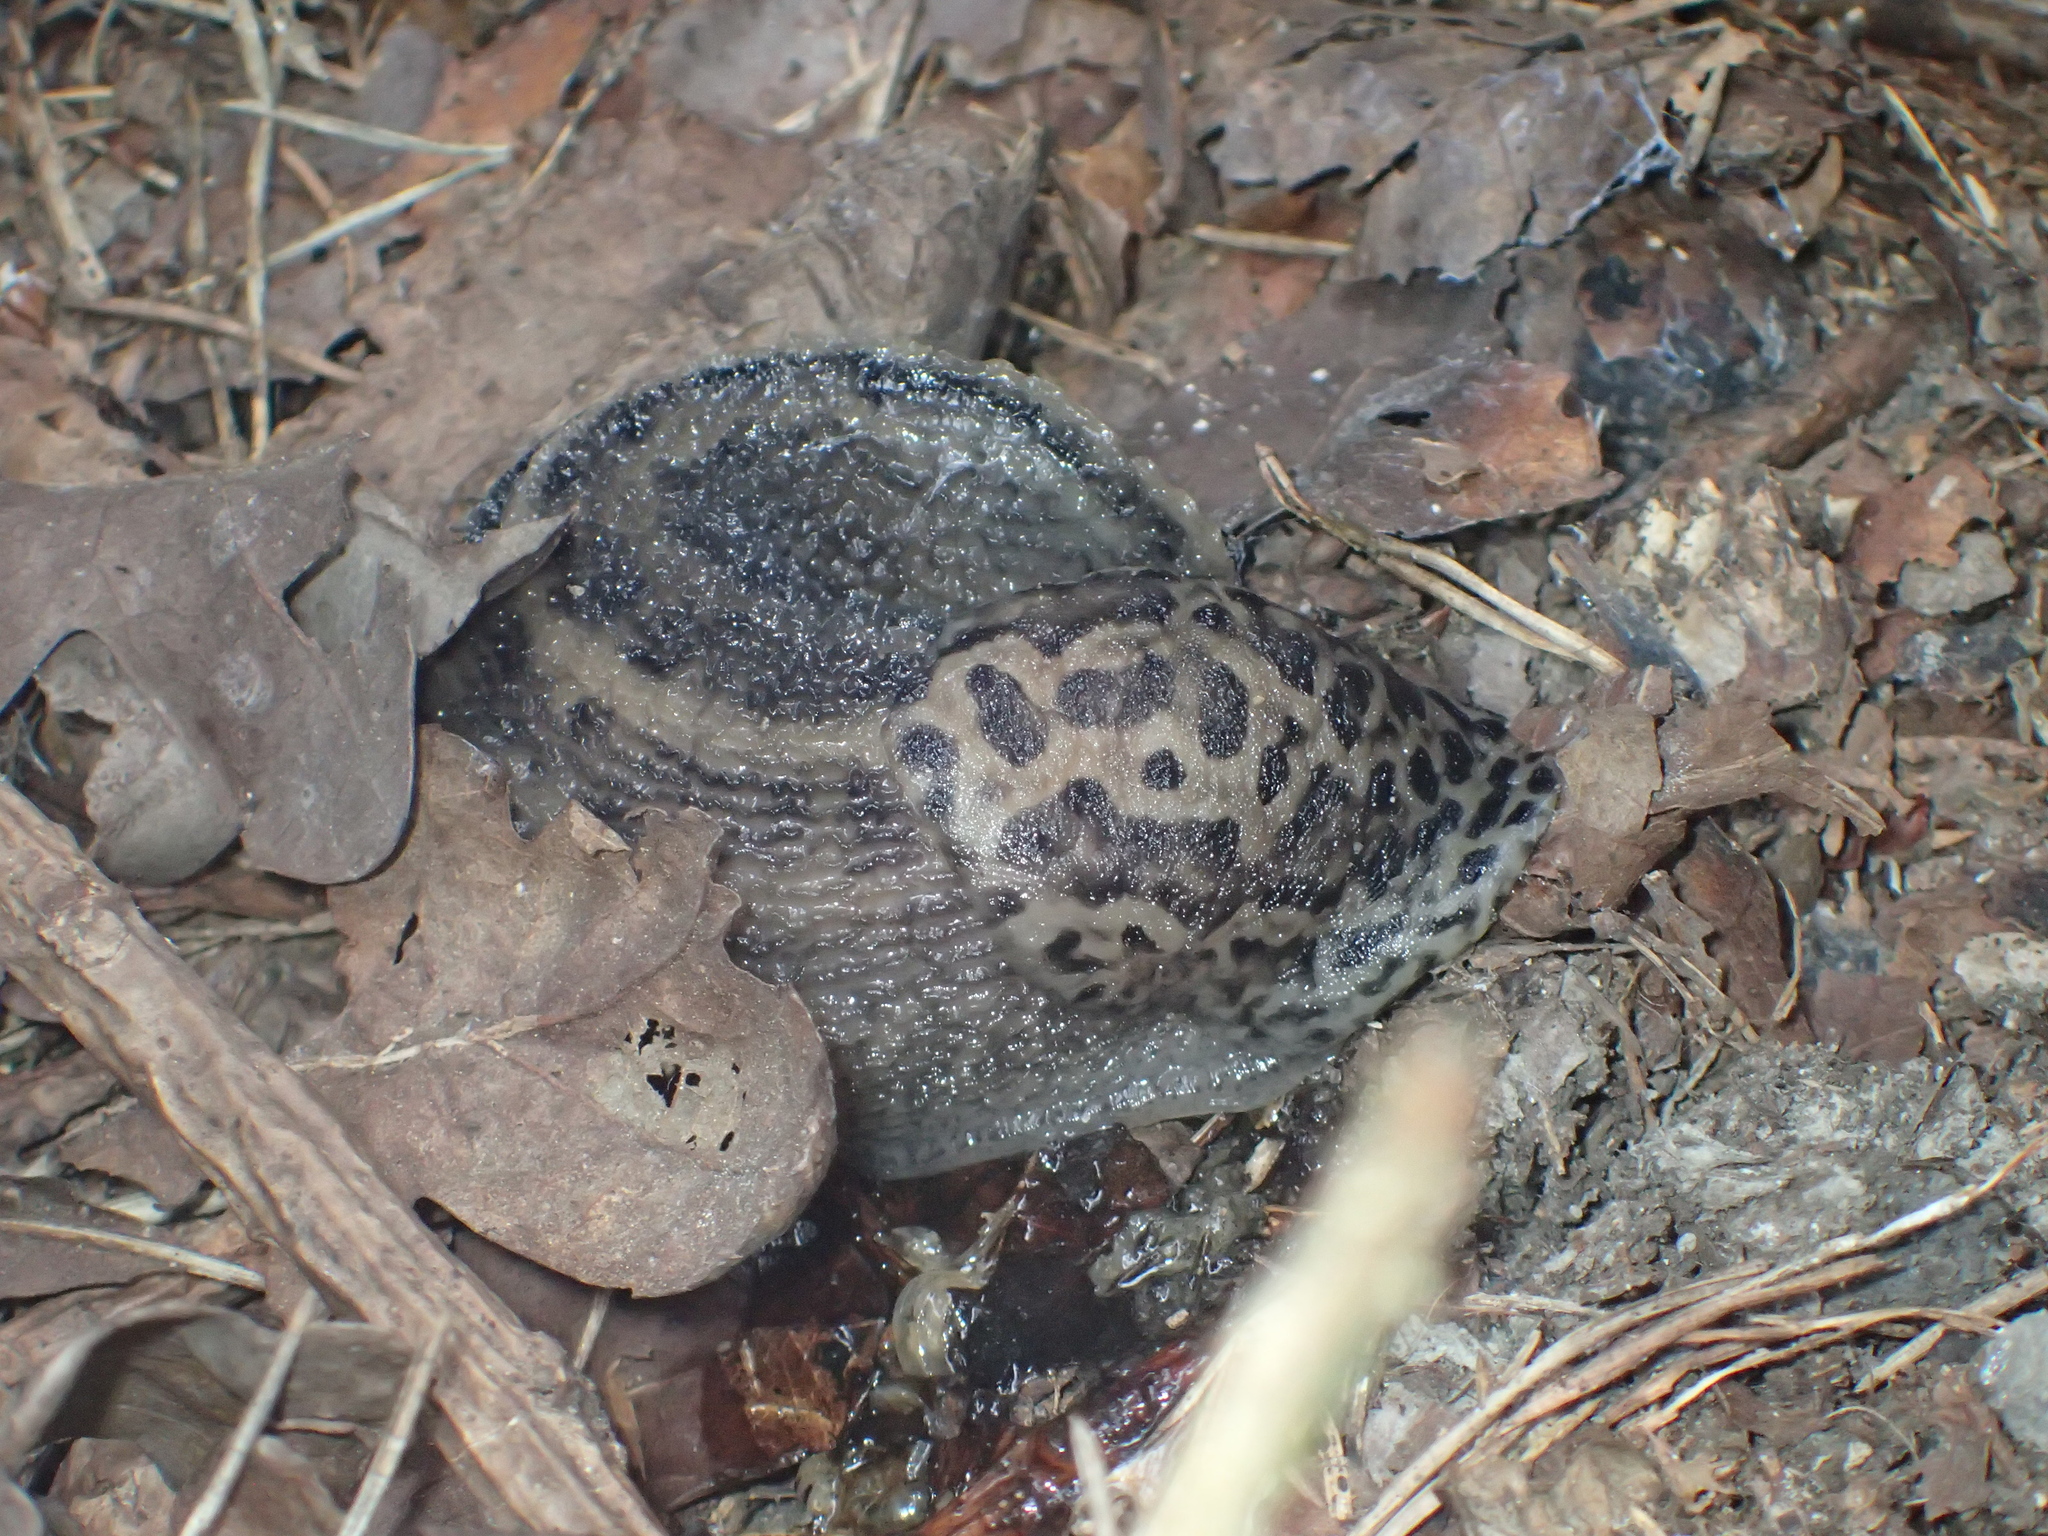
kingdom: Animalia
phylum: Mollusca
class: Gastropoda
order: Stylommatophora
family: Limacidae
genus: Limax
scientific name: Limax maximus
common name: Great grey slug
